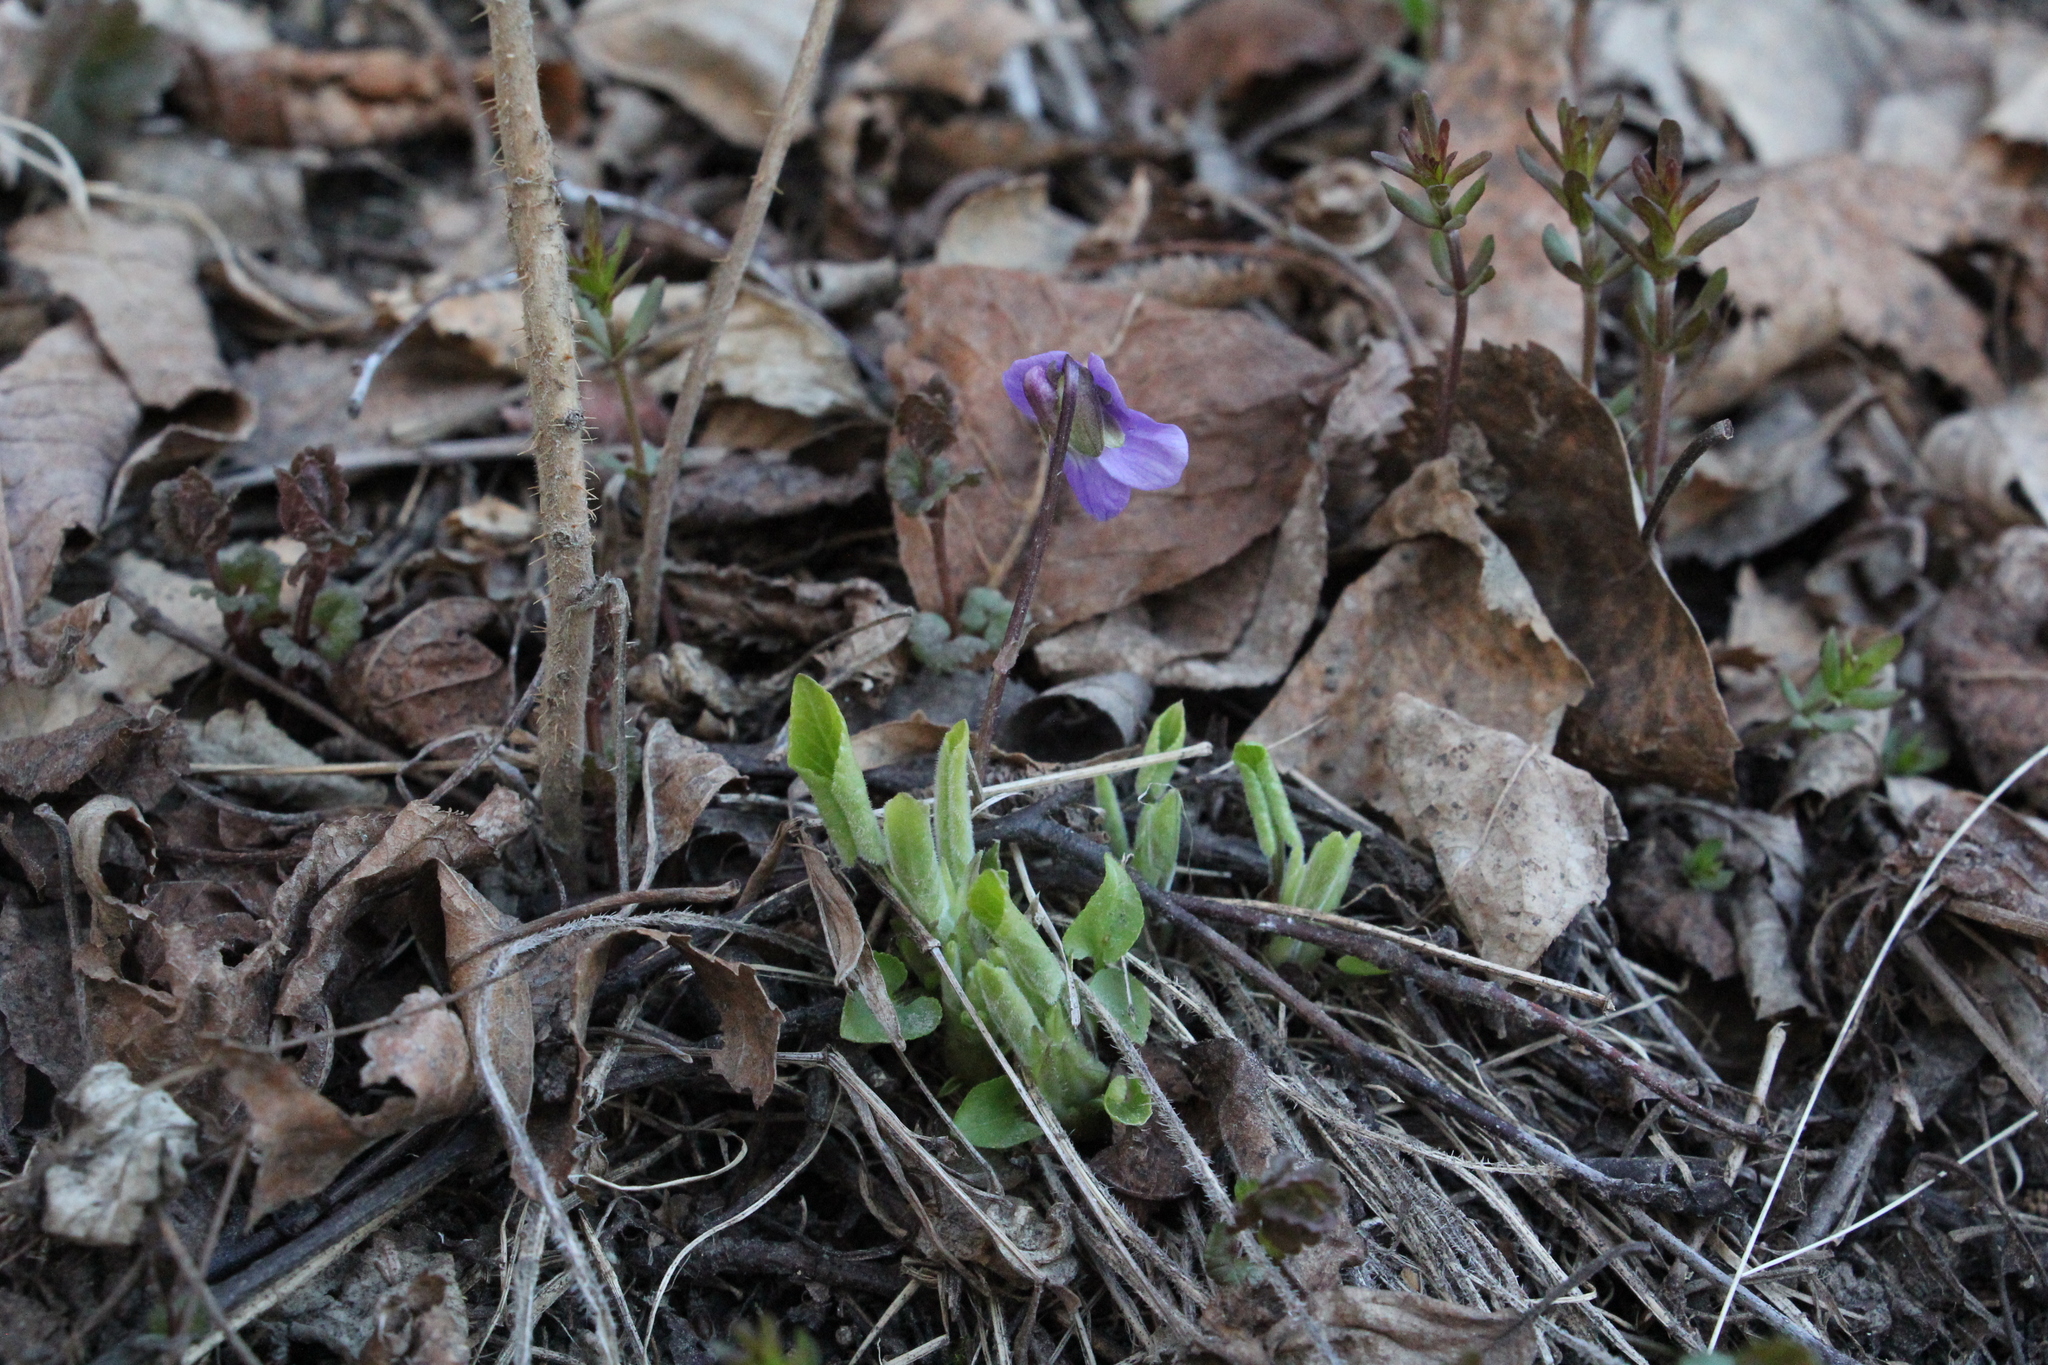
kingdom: Plantae
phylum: Tracheophyta
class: Magnoliopsida
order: Malpighiales
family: Violaceae
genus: Viola
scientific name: Viola hirta
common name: Hairy violet
